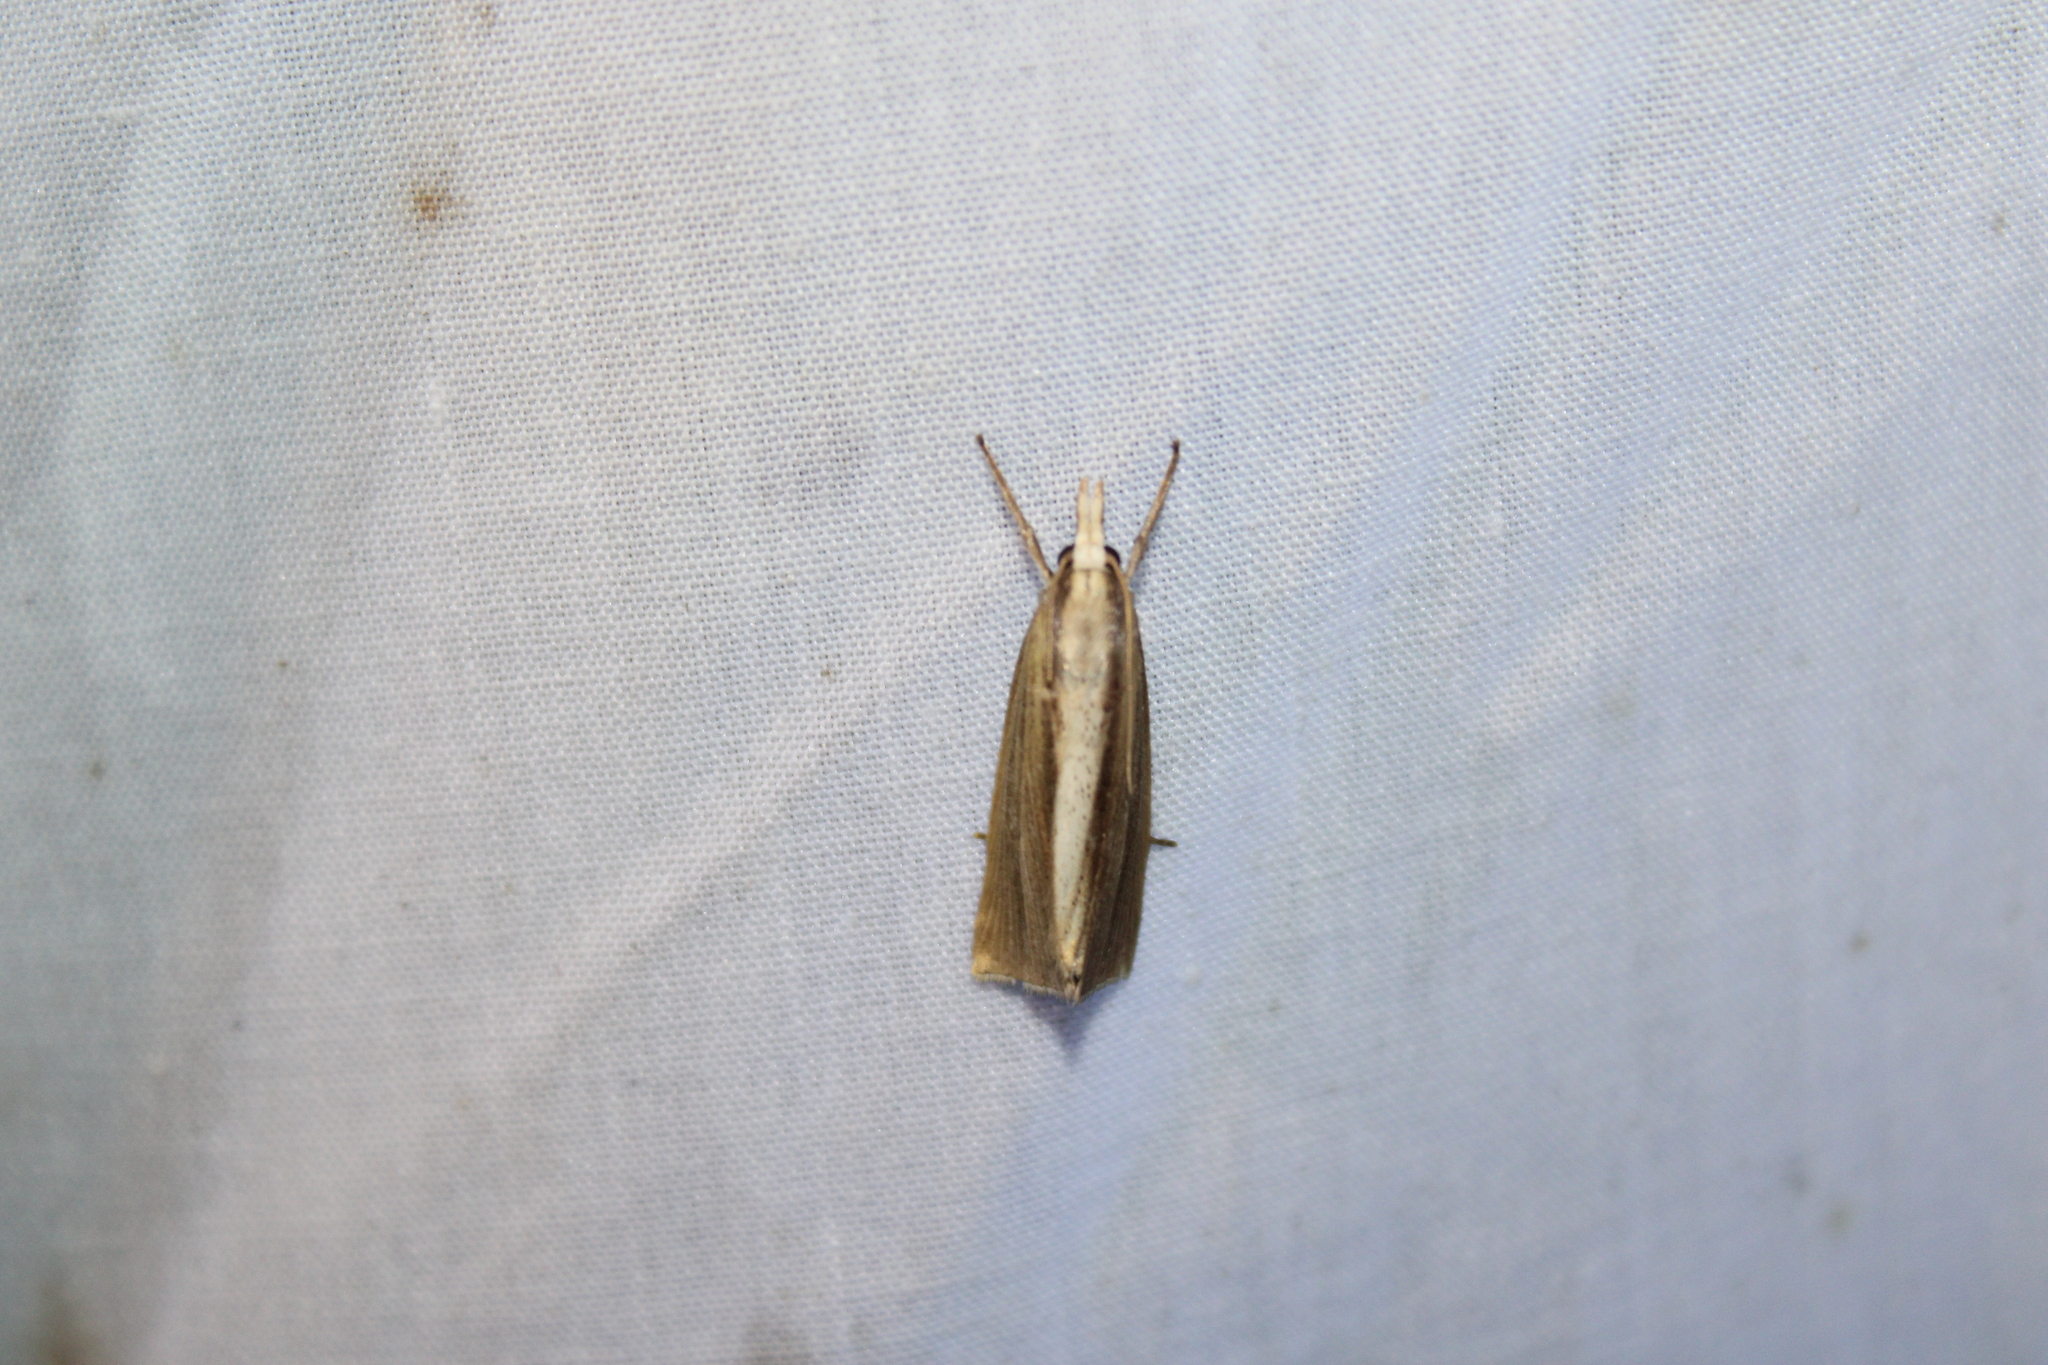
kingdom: Animalia
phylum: Arthropoda
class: Insecta
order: Lepidoptera
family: Crambidae
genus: Epina
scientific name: Epina alleni
